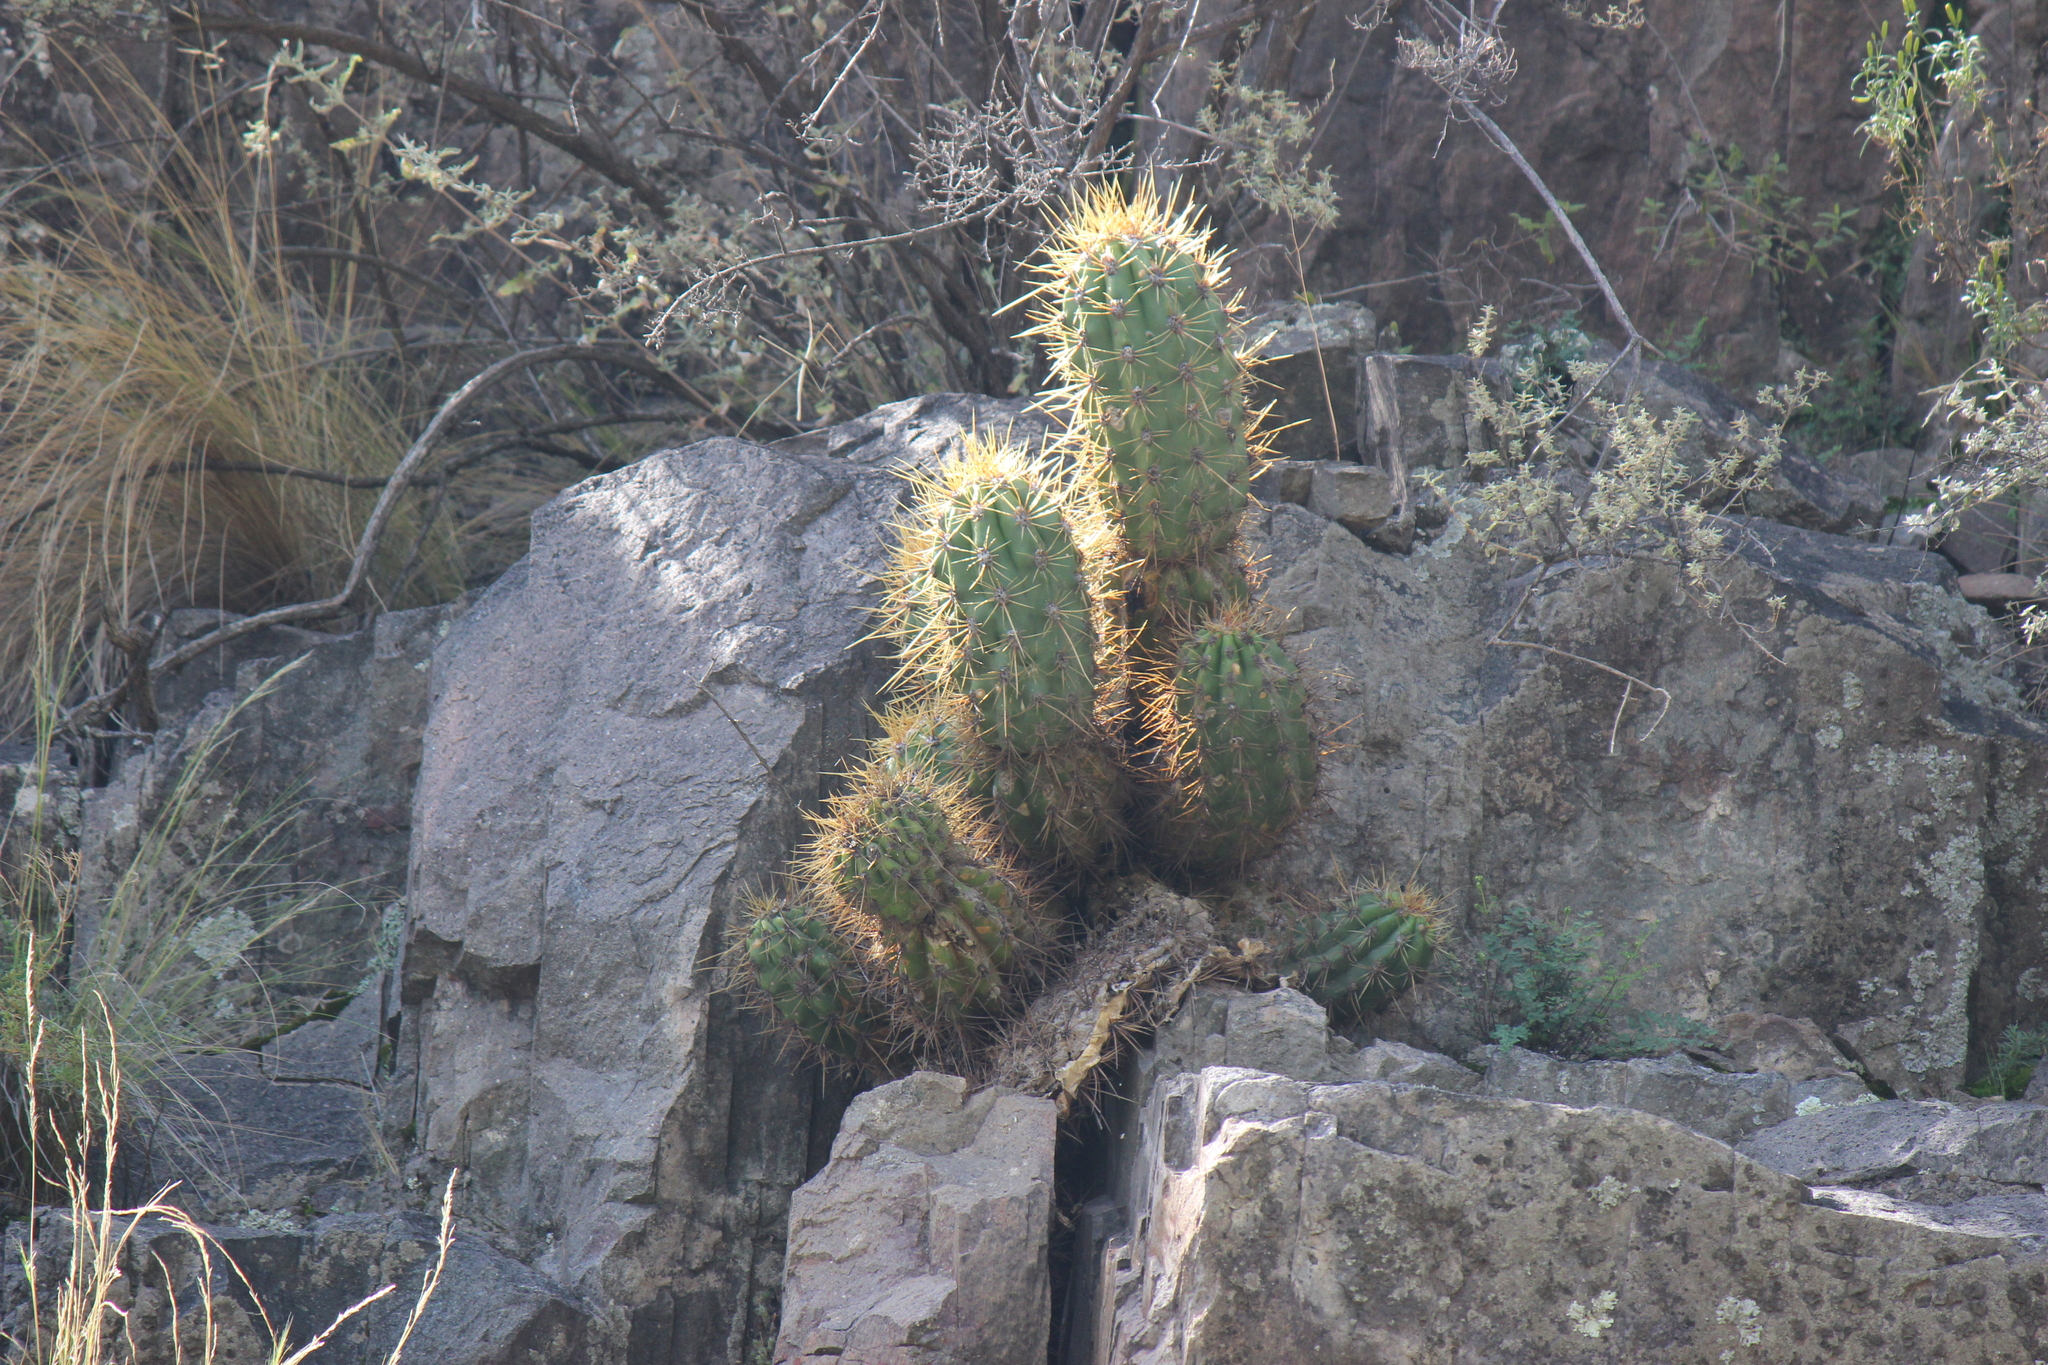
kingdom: Plantae
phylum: Tracheophyta
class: Magnoliopsida
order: Caryophyllales
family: Cactaceae
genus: Soehrensia
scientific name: Soehrensia candicans
